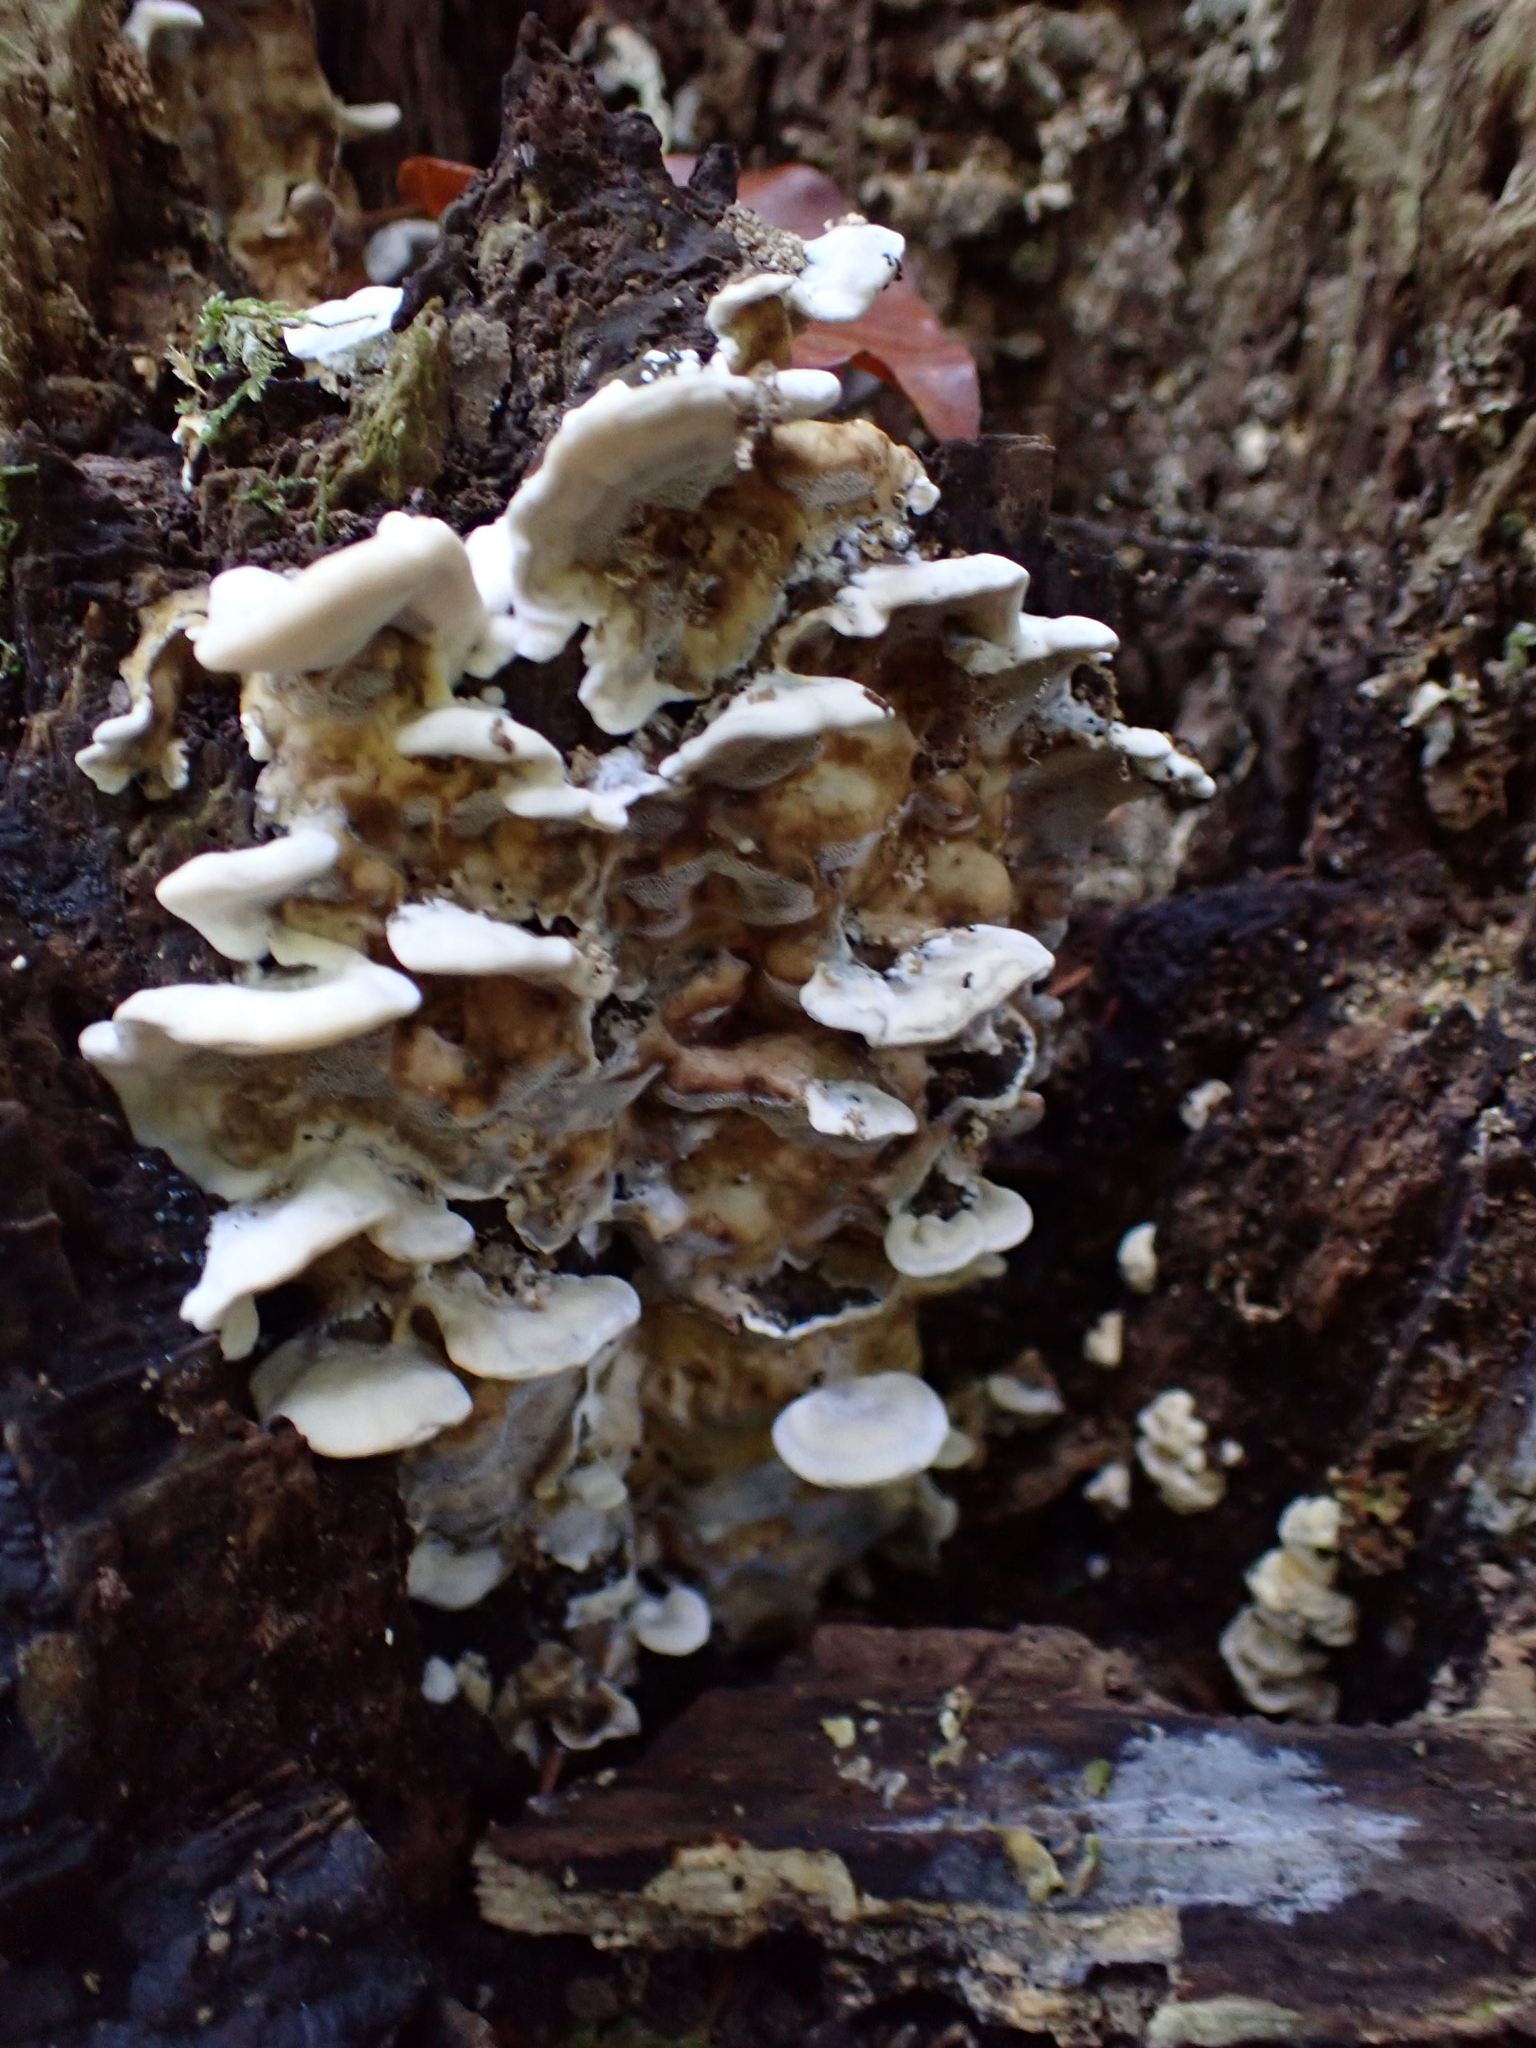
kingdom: Fungi
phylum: Basidiomycota
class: Agaricomycetes
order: Polyporales
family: Phanerochaetaceae
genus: Bjerkandera
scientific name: Bjerkandera adusta
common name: Smoky bracket
